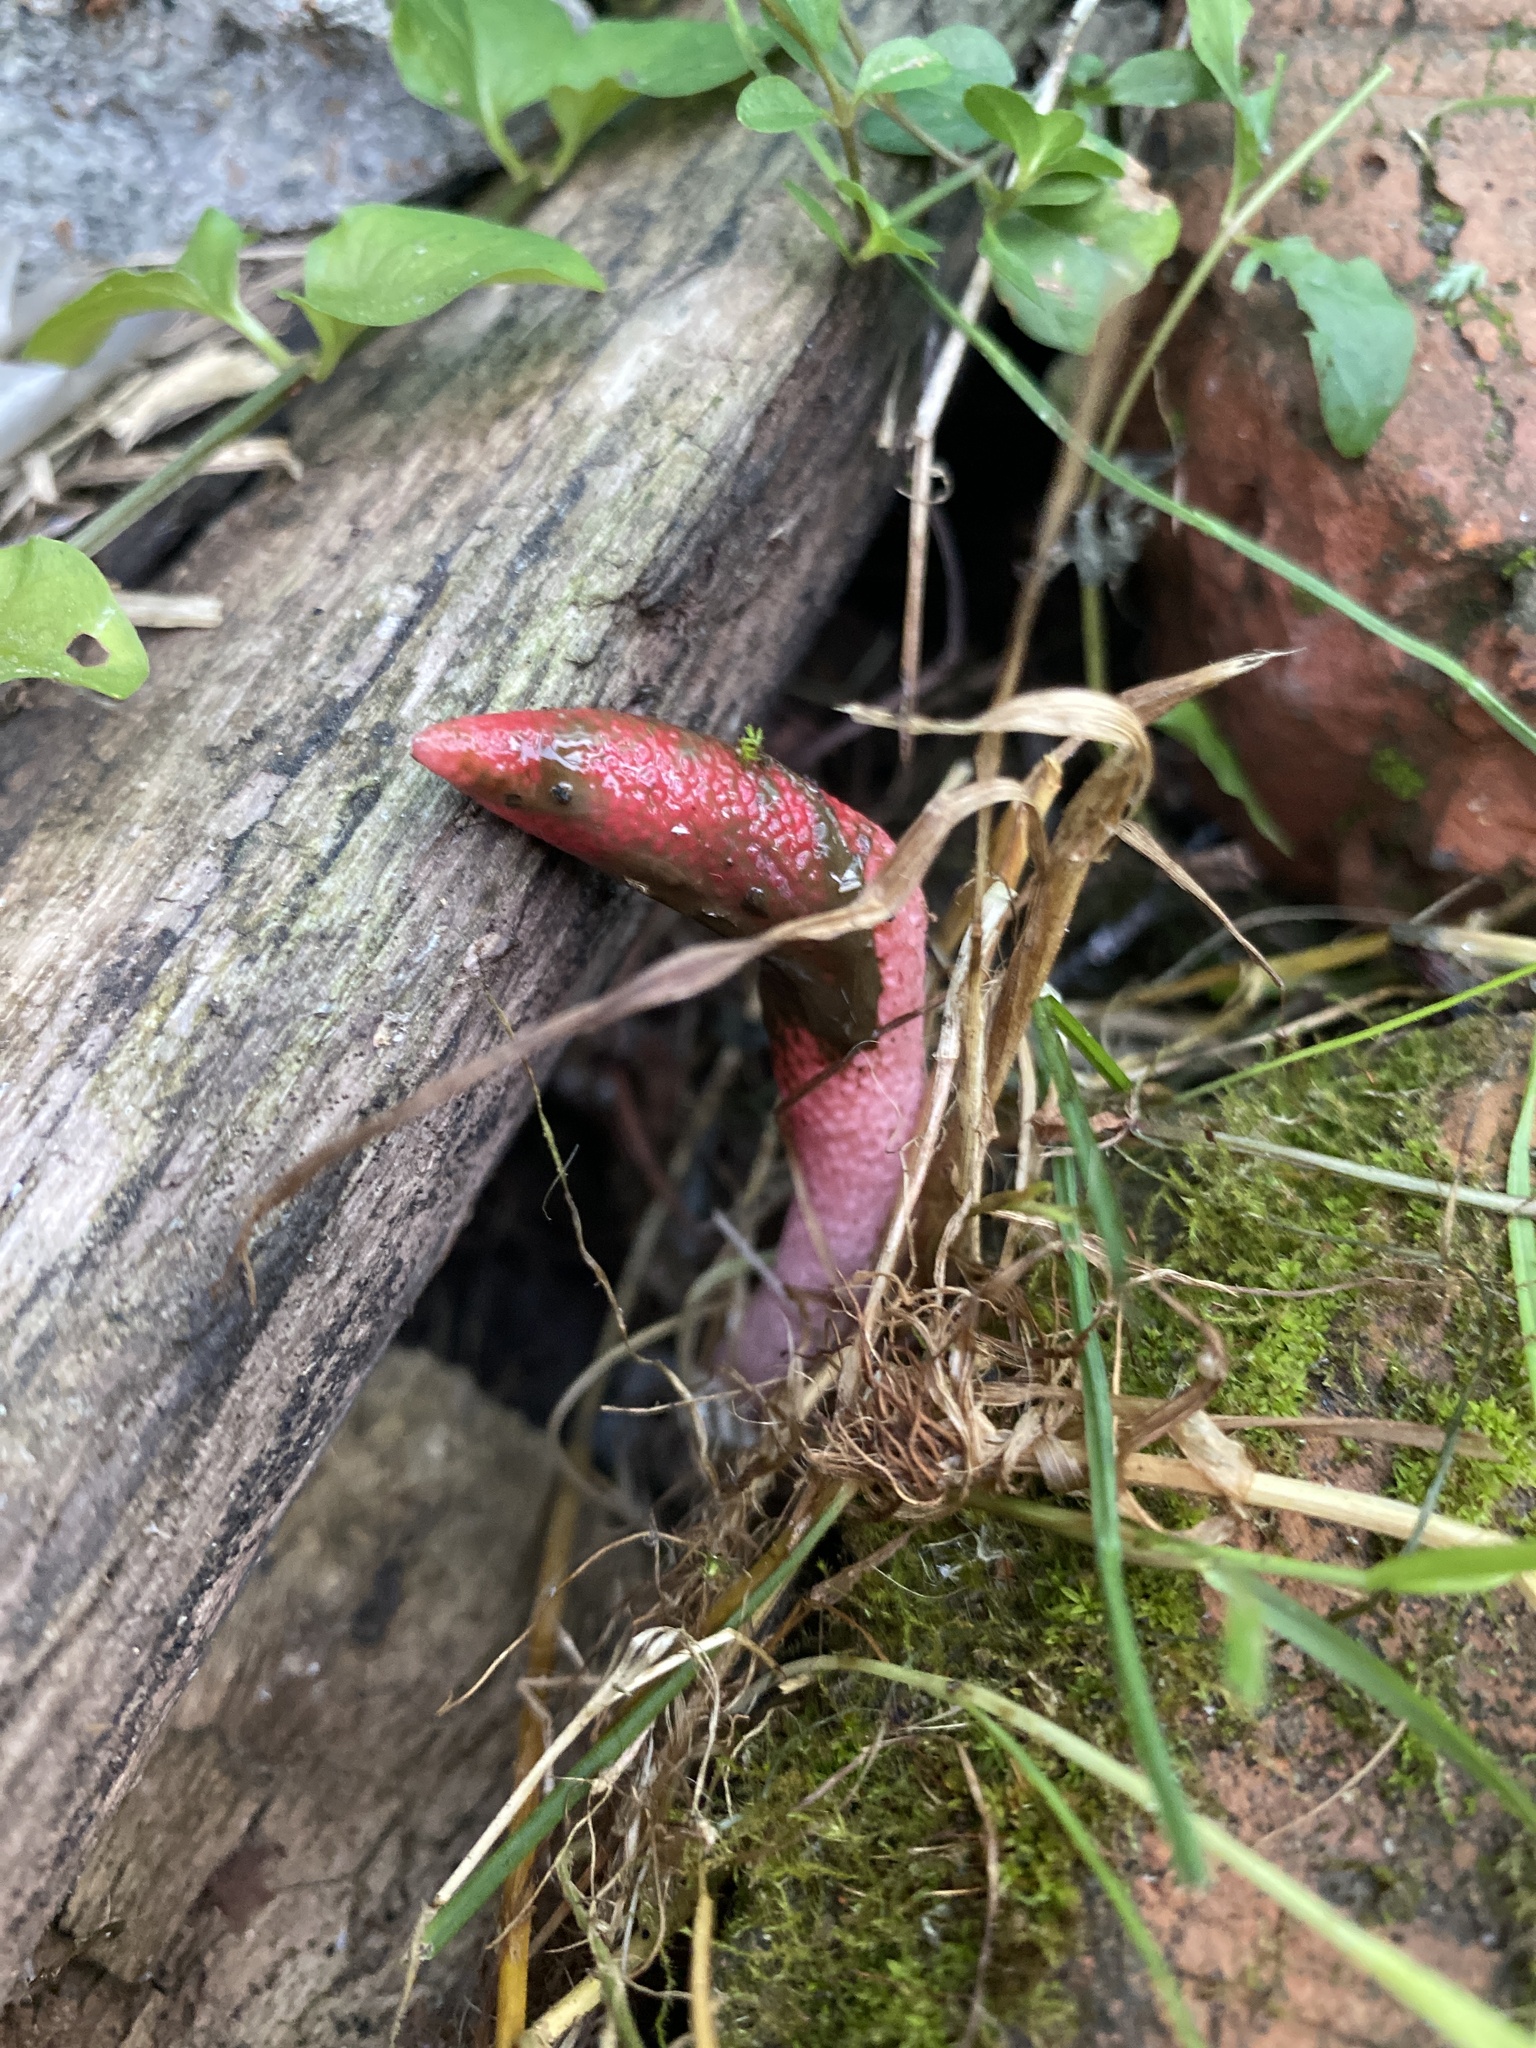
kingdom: Fungi
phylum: Basidiomycota
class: Agaricomycetes
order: Phallales
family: Phallaceae
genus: Mutinus
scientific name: Mutinus ravenelii
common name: Red stinkhorn
